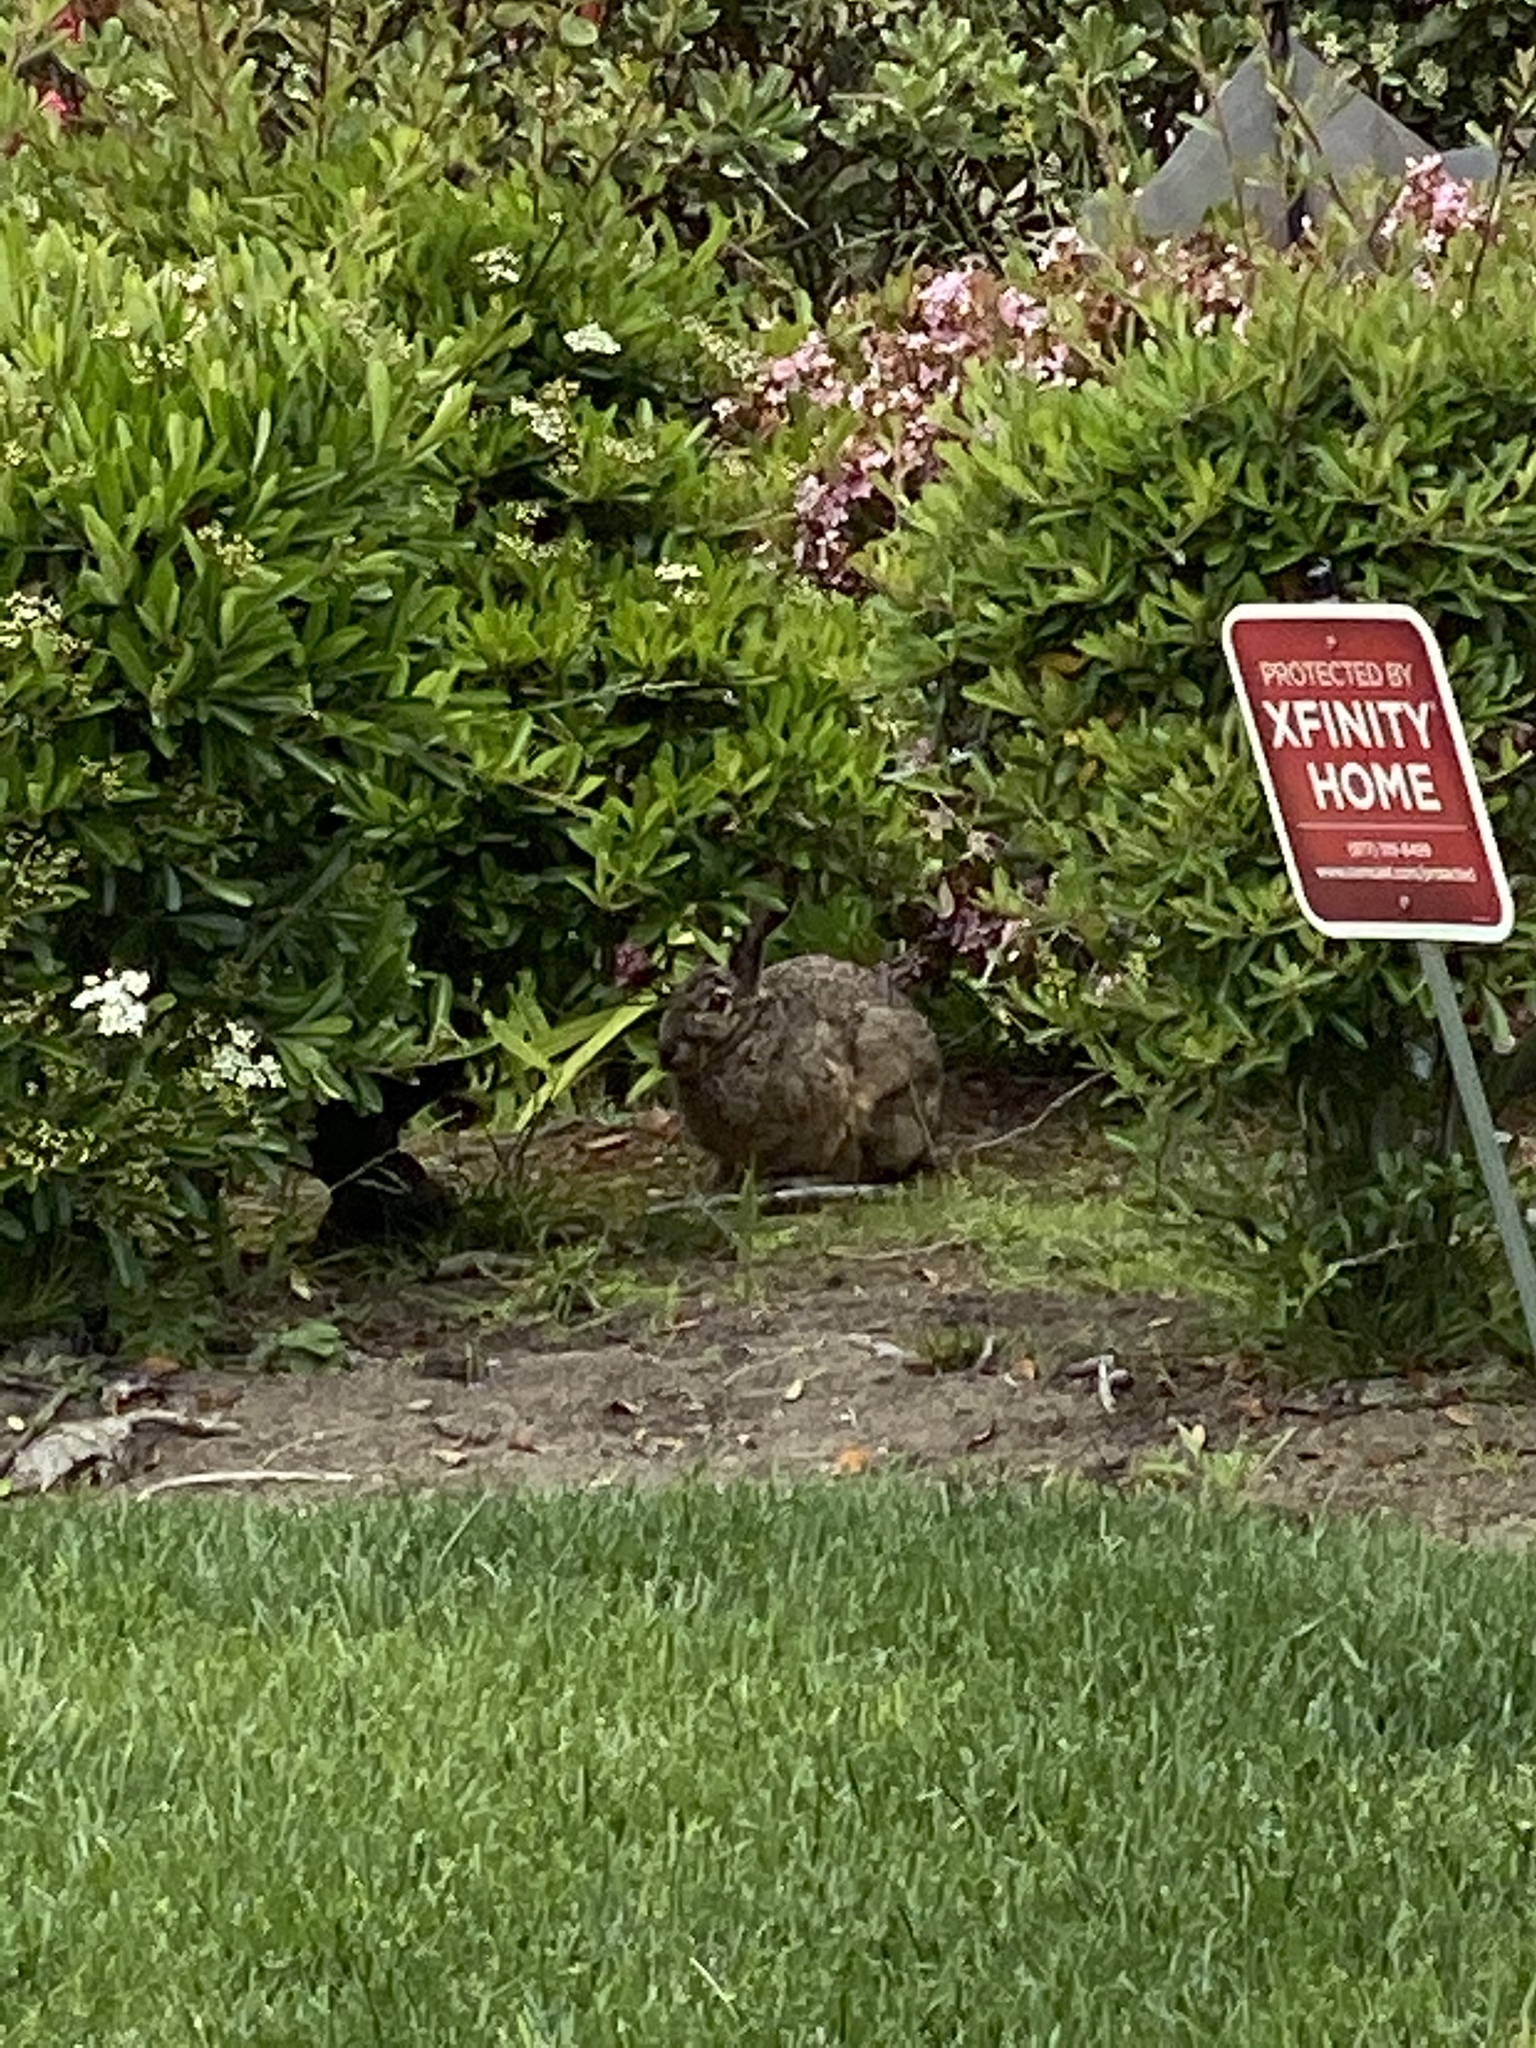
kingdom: Animalia
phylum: Chordata
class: Mammalia
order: Lagomorpha
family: Leporidae
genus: Lepus
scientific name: Lepus californicus
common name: Black-tailed jackrabbit
